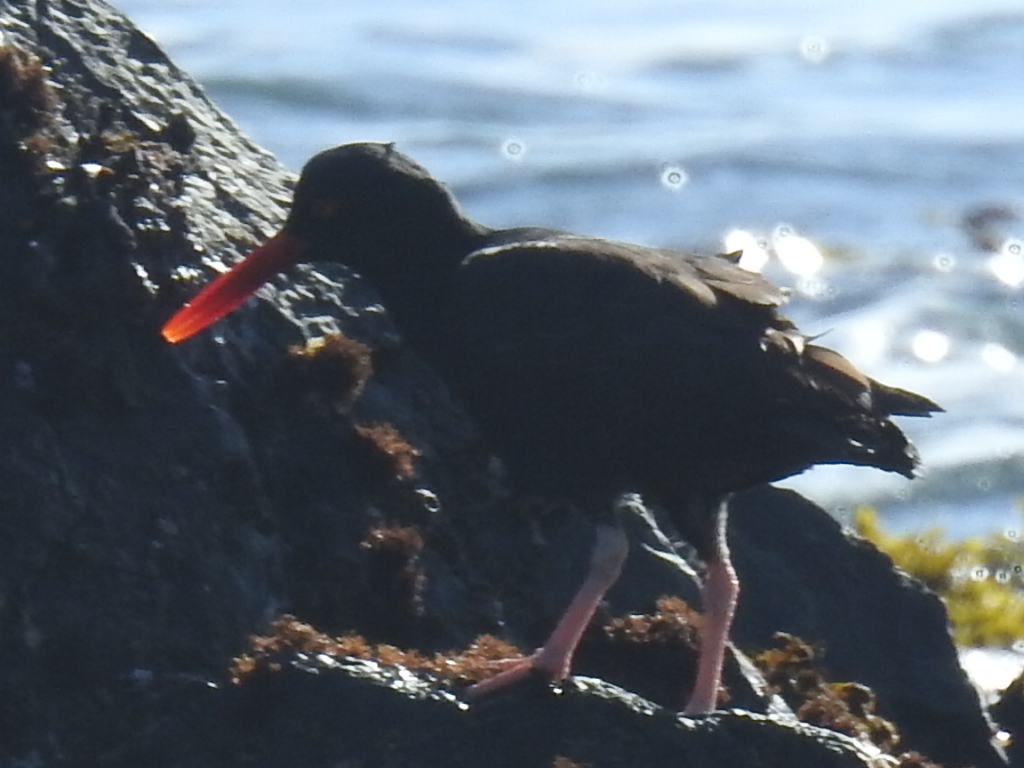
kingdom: Animalia
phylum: Chordata
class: Aves
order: Charadriiformes
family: Haematopodidae
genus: Haematopus
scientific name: Haematopus bachmani
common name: Black oystercatcher
